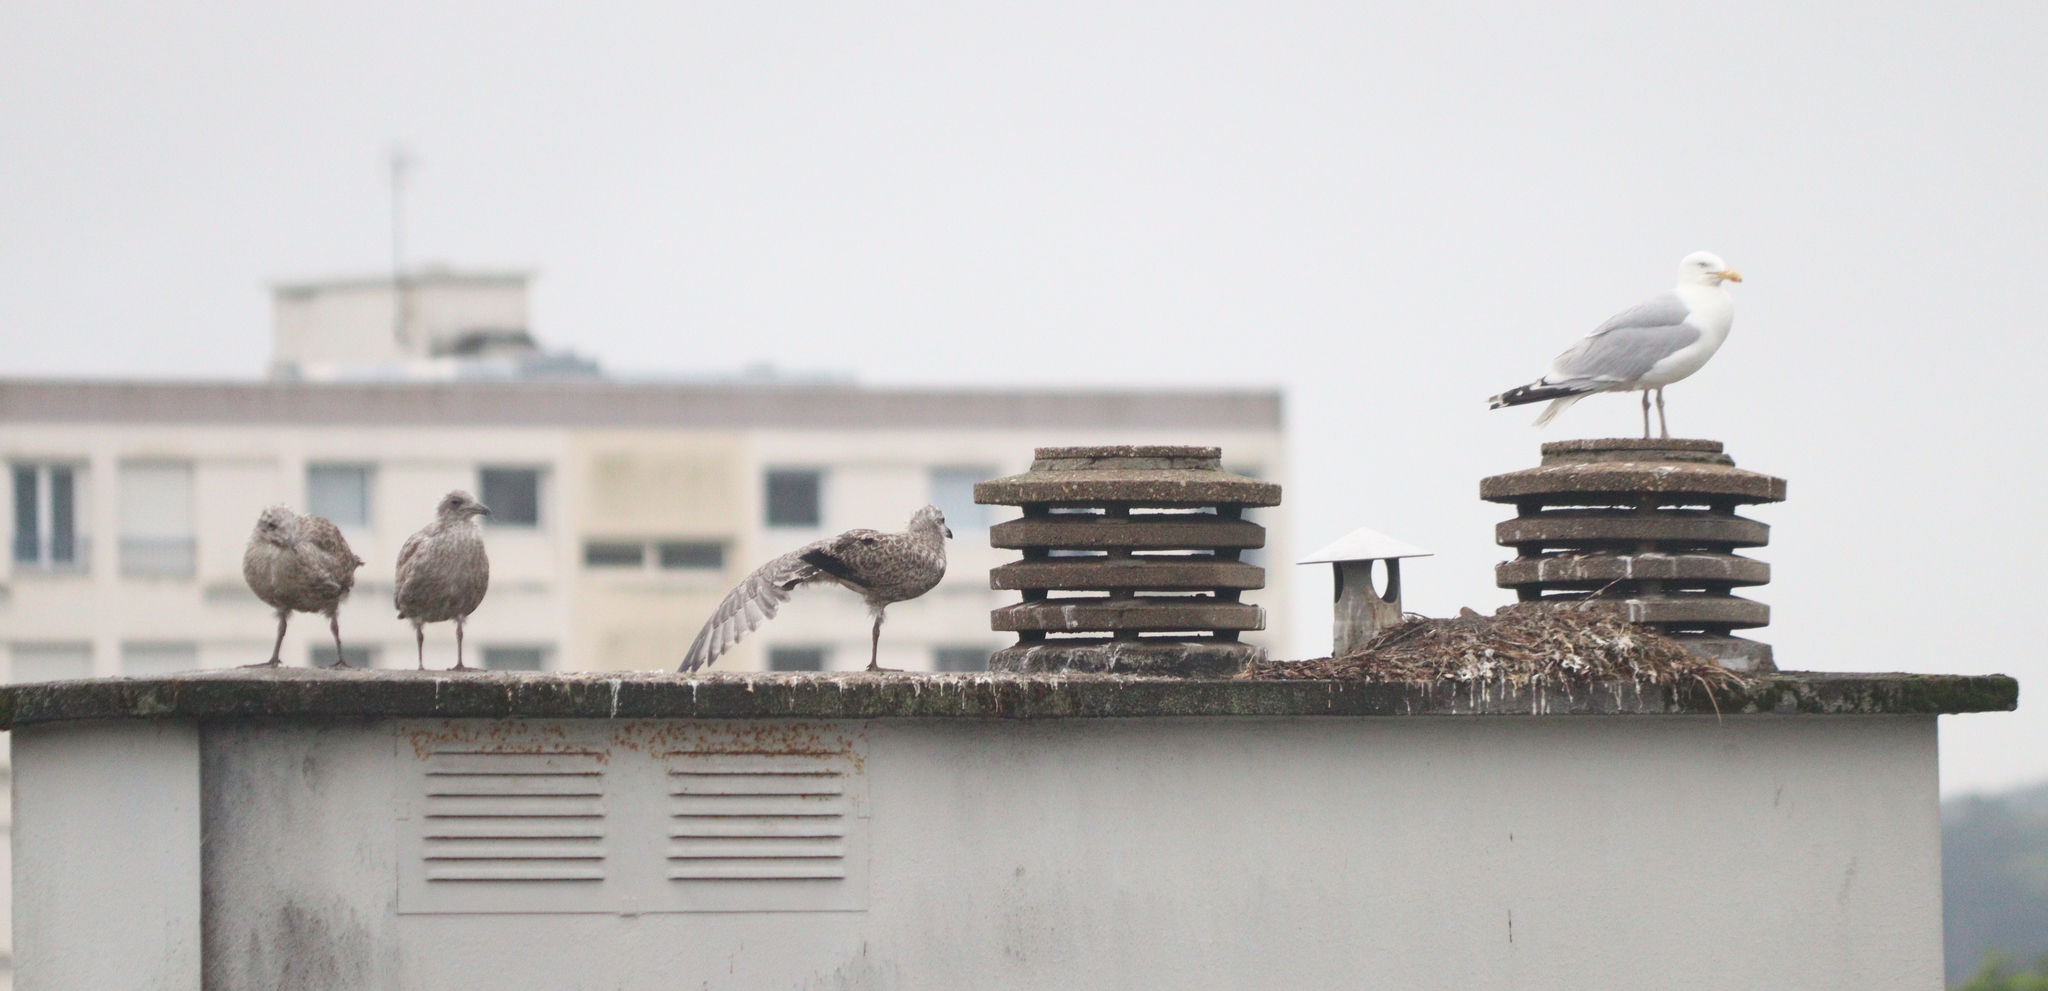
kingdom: Animalia
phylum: Chordata
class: Aves
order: Charadriiformes
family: Laridae
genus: Larus
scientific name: Larus argentatus
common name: Herring gull
